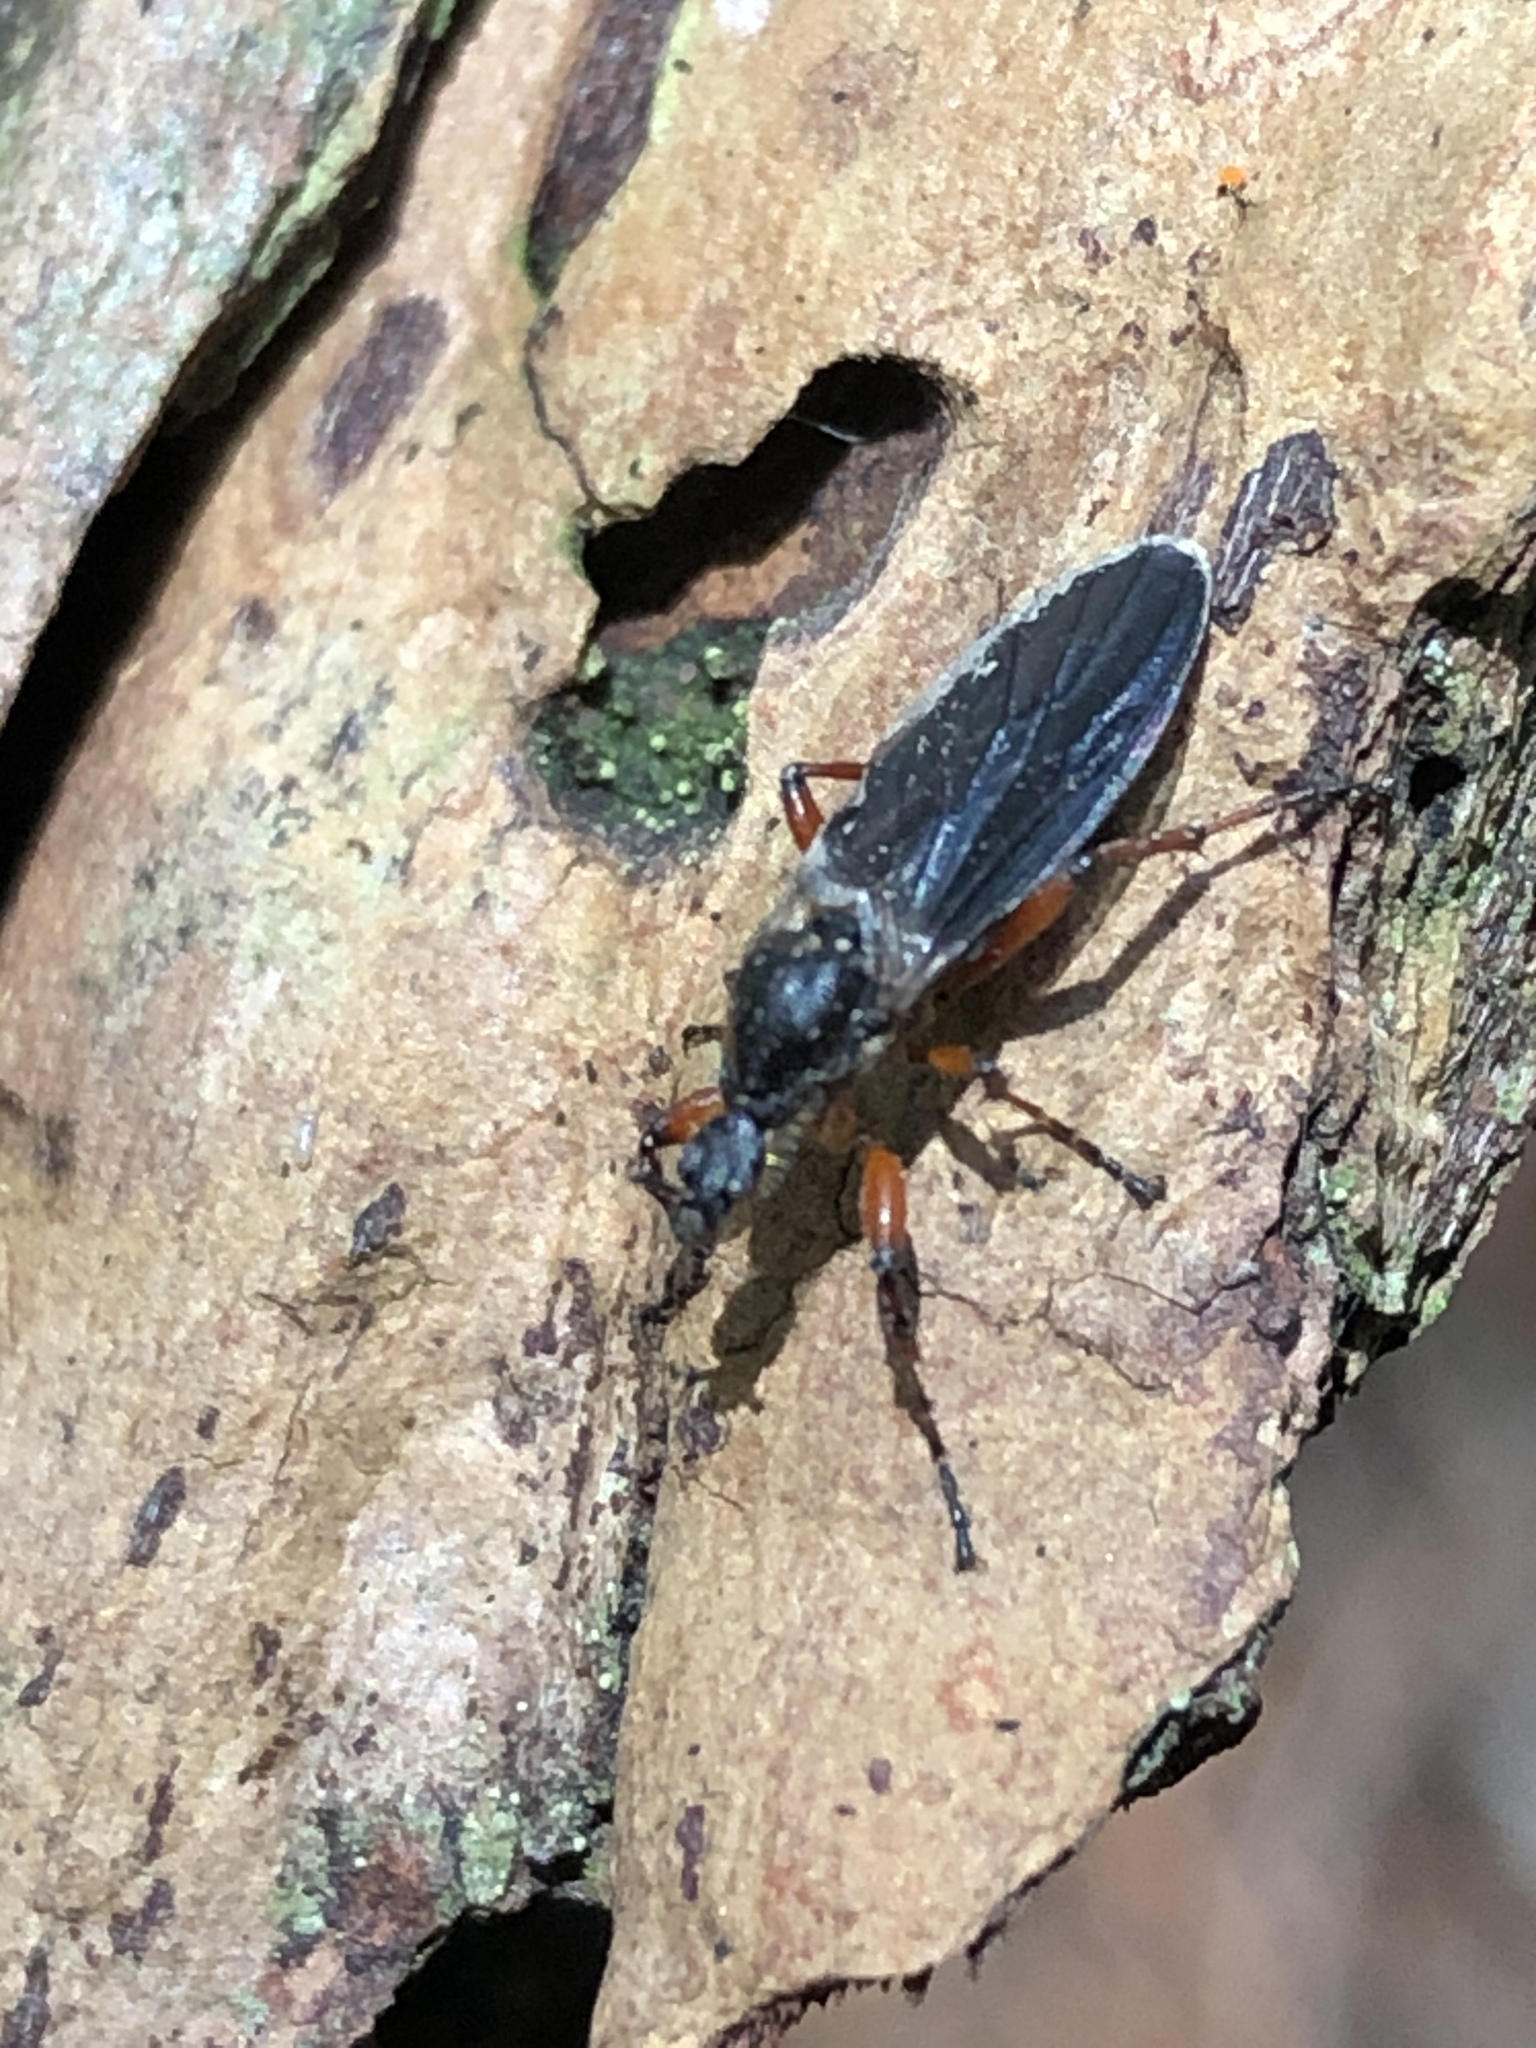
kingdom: Animalia
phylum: Arthropoda
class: Insecta
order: Diptera
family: Bibionidae
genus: Bibio
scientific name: Bibio
